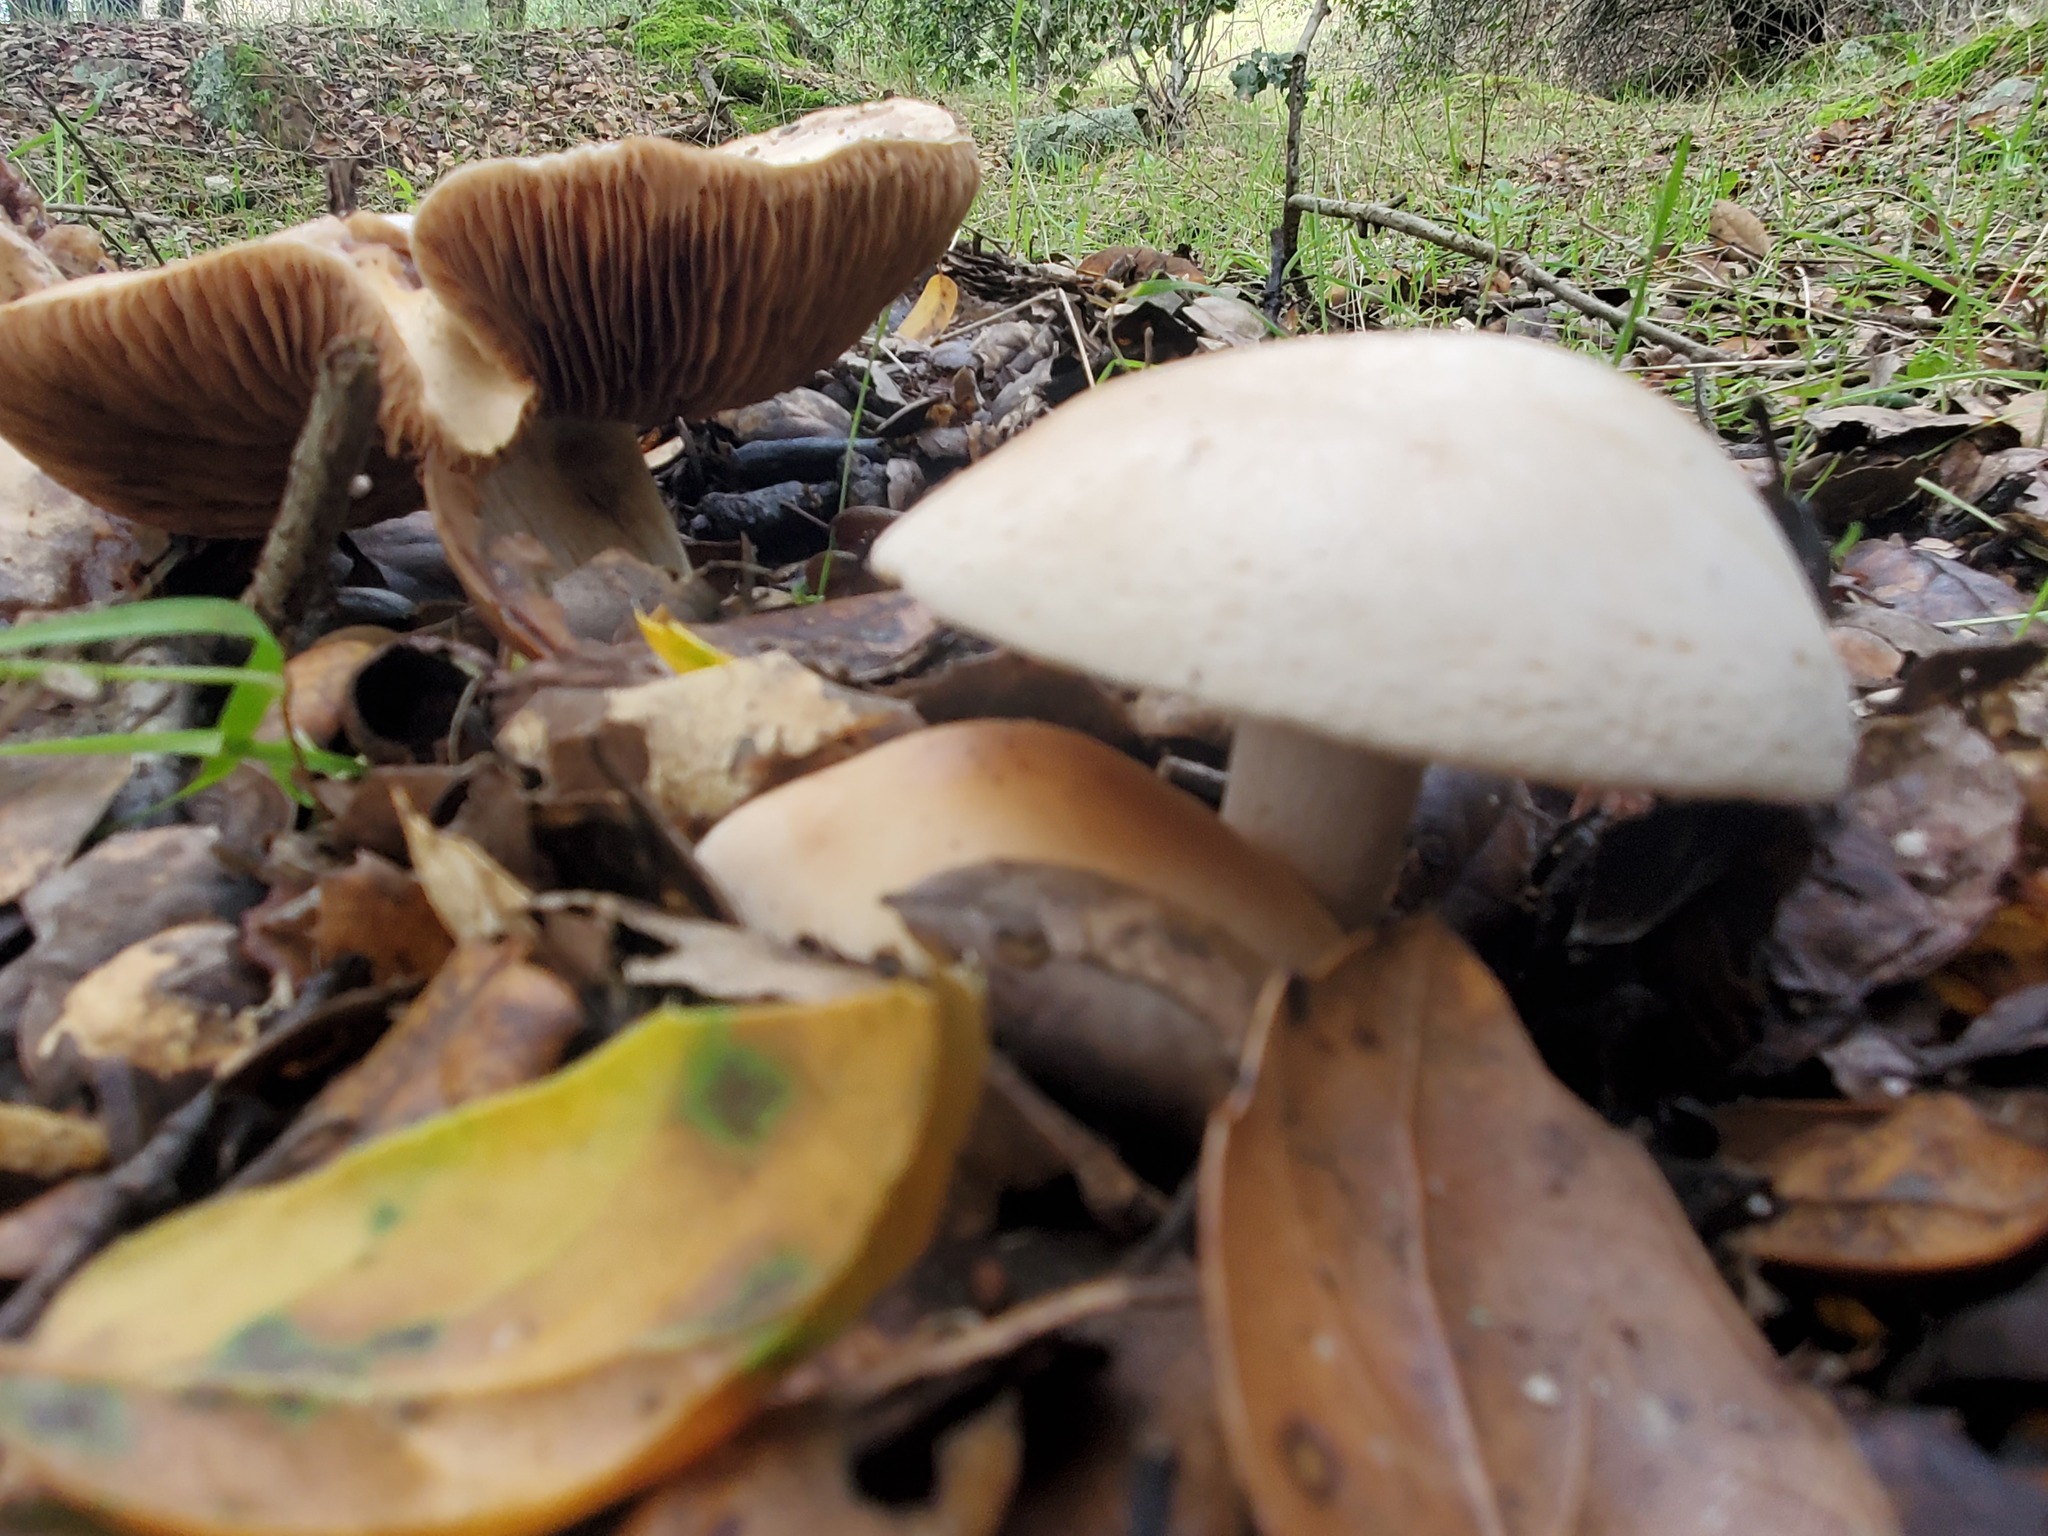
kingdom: Fungi
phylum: Basidiomycota
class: Agaricomycetes
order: Agaricales
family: Hymenogastraceae
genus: Hebeloma
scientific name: Hebeloma crustuliniforme
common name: Poison pie
